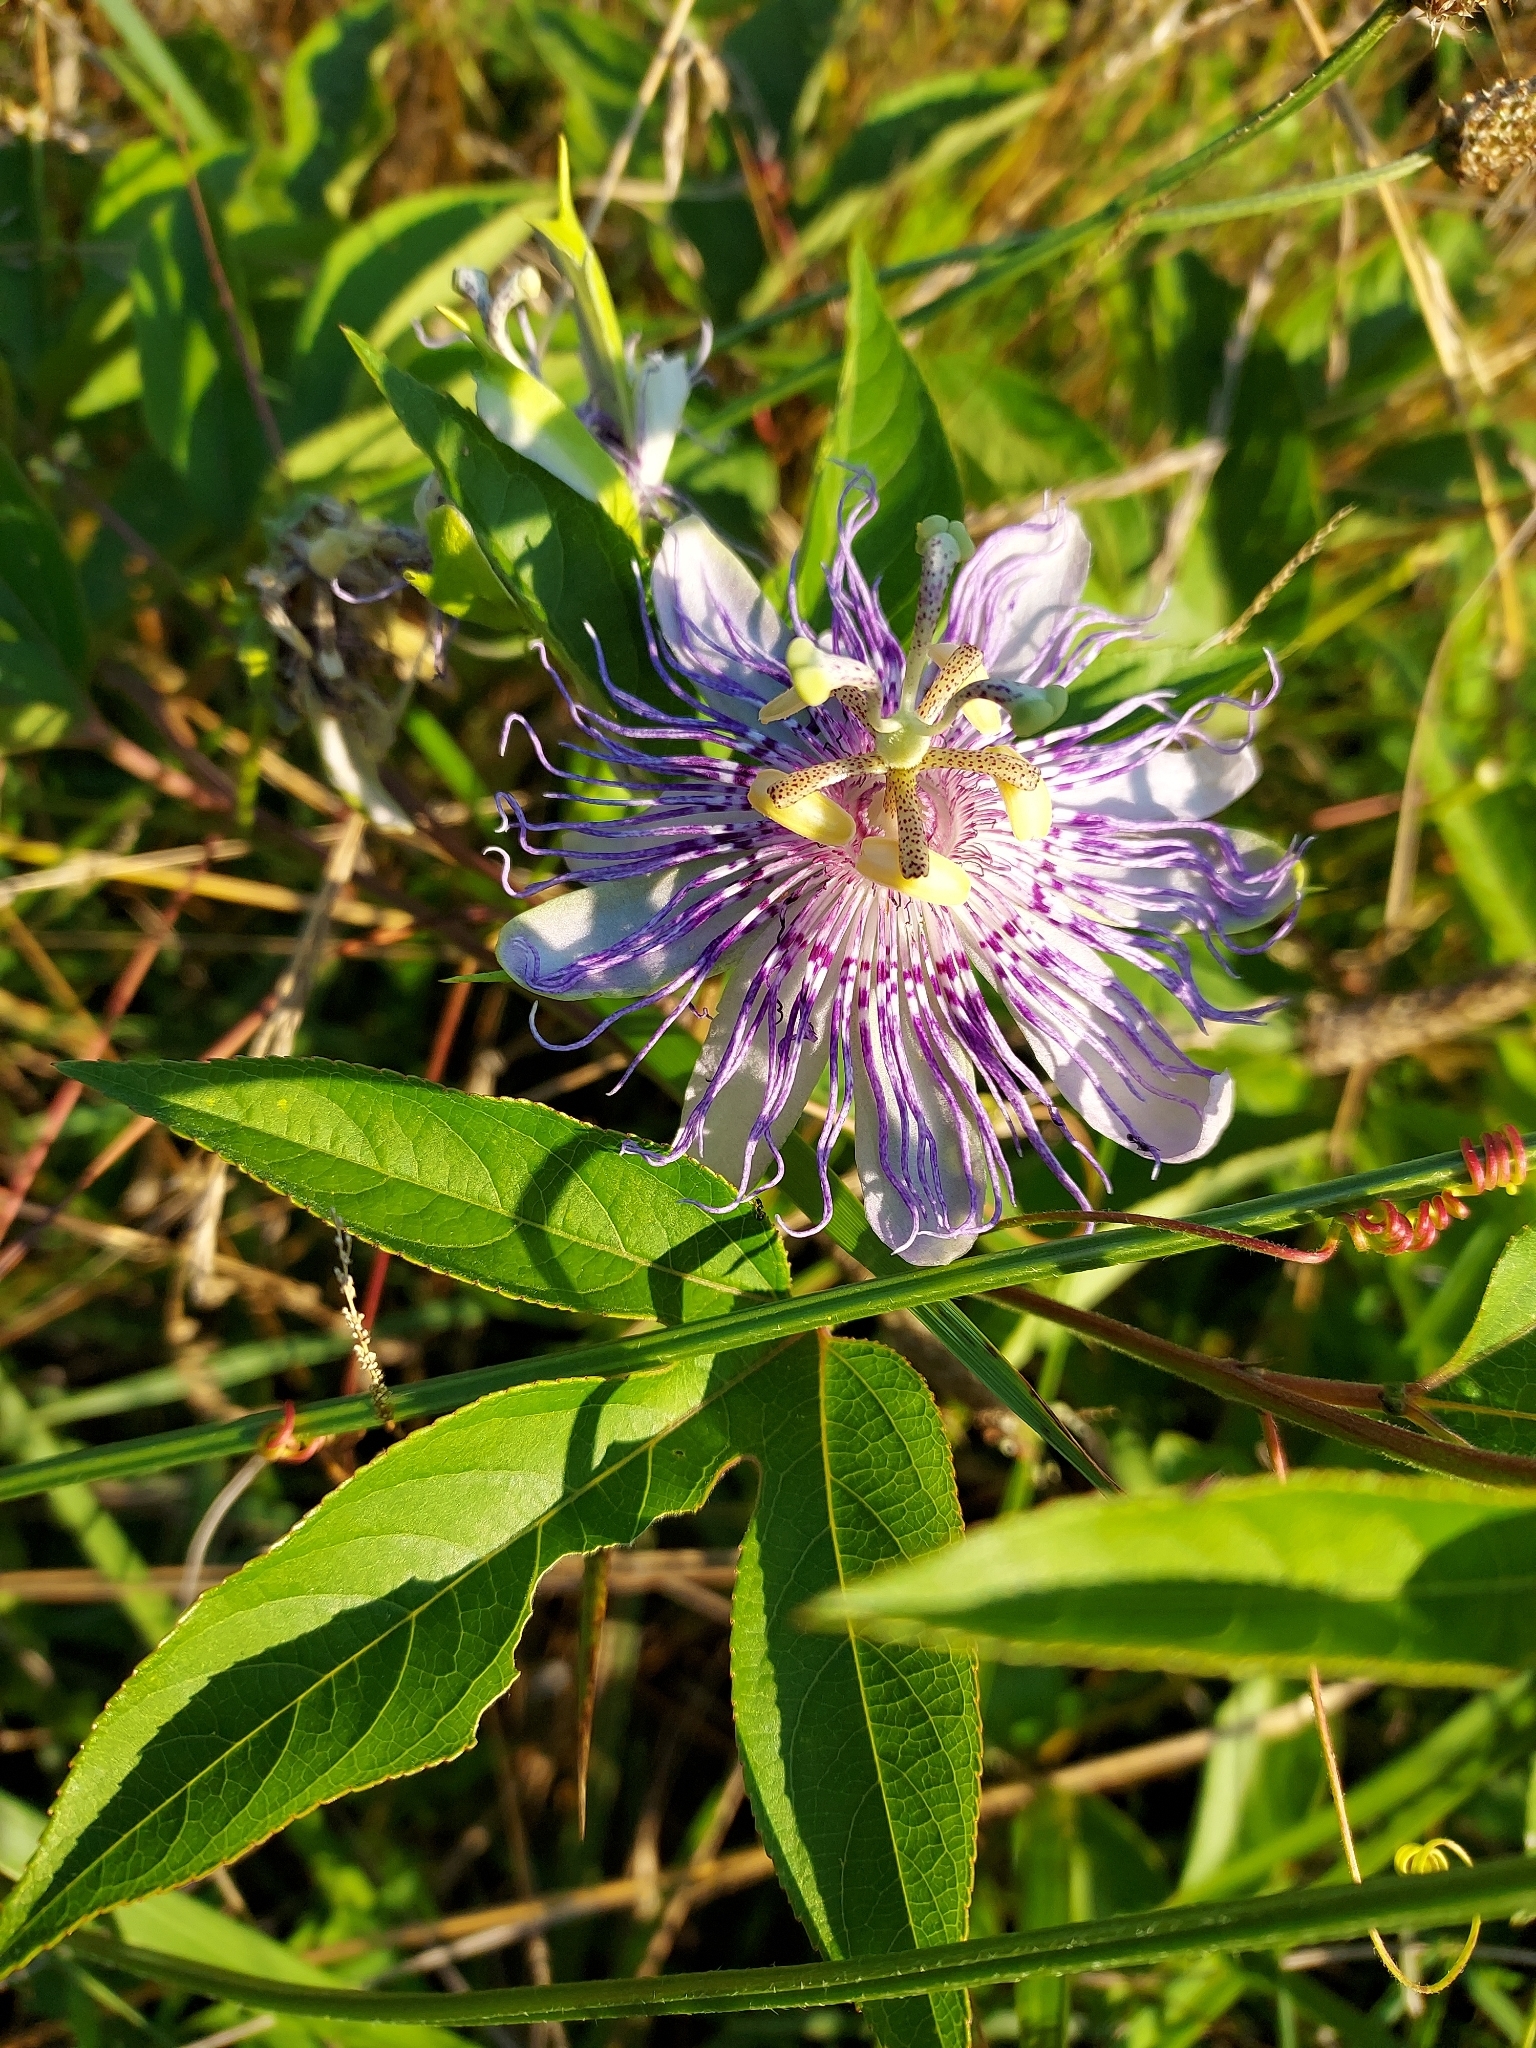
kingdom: Plantae
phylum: Tracheophyta
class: Magnoliopsida
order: Malpighiales
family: Passifloraceae
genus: Passiflora
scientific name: Passiflora incarnata
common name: Apricot-vine
